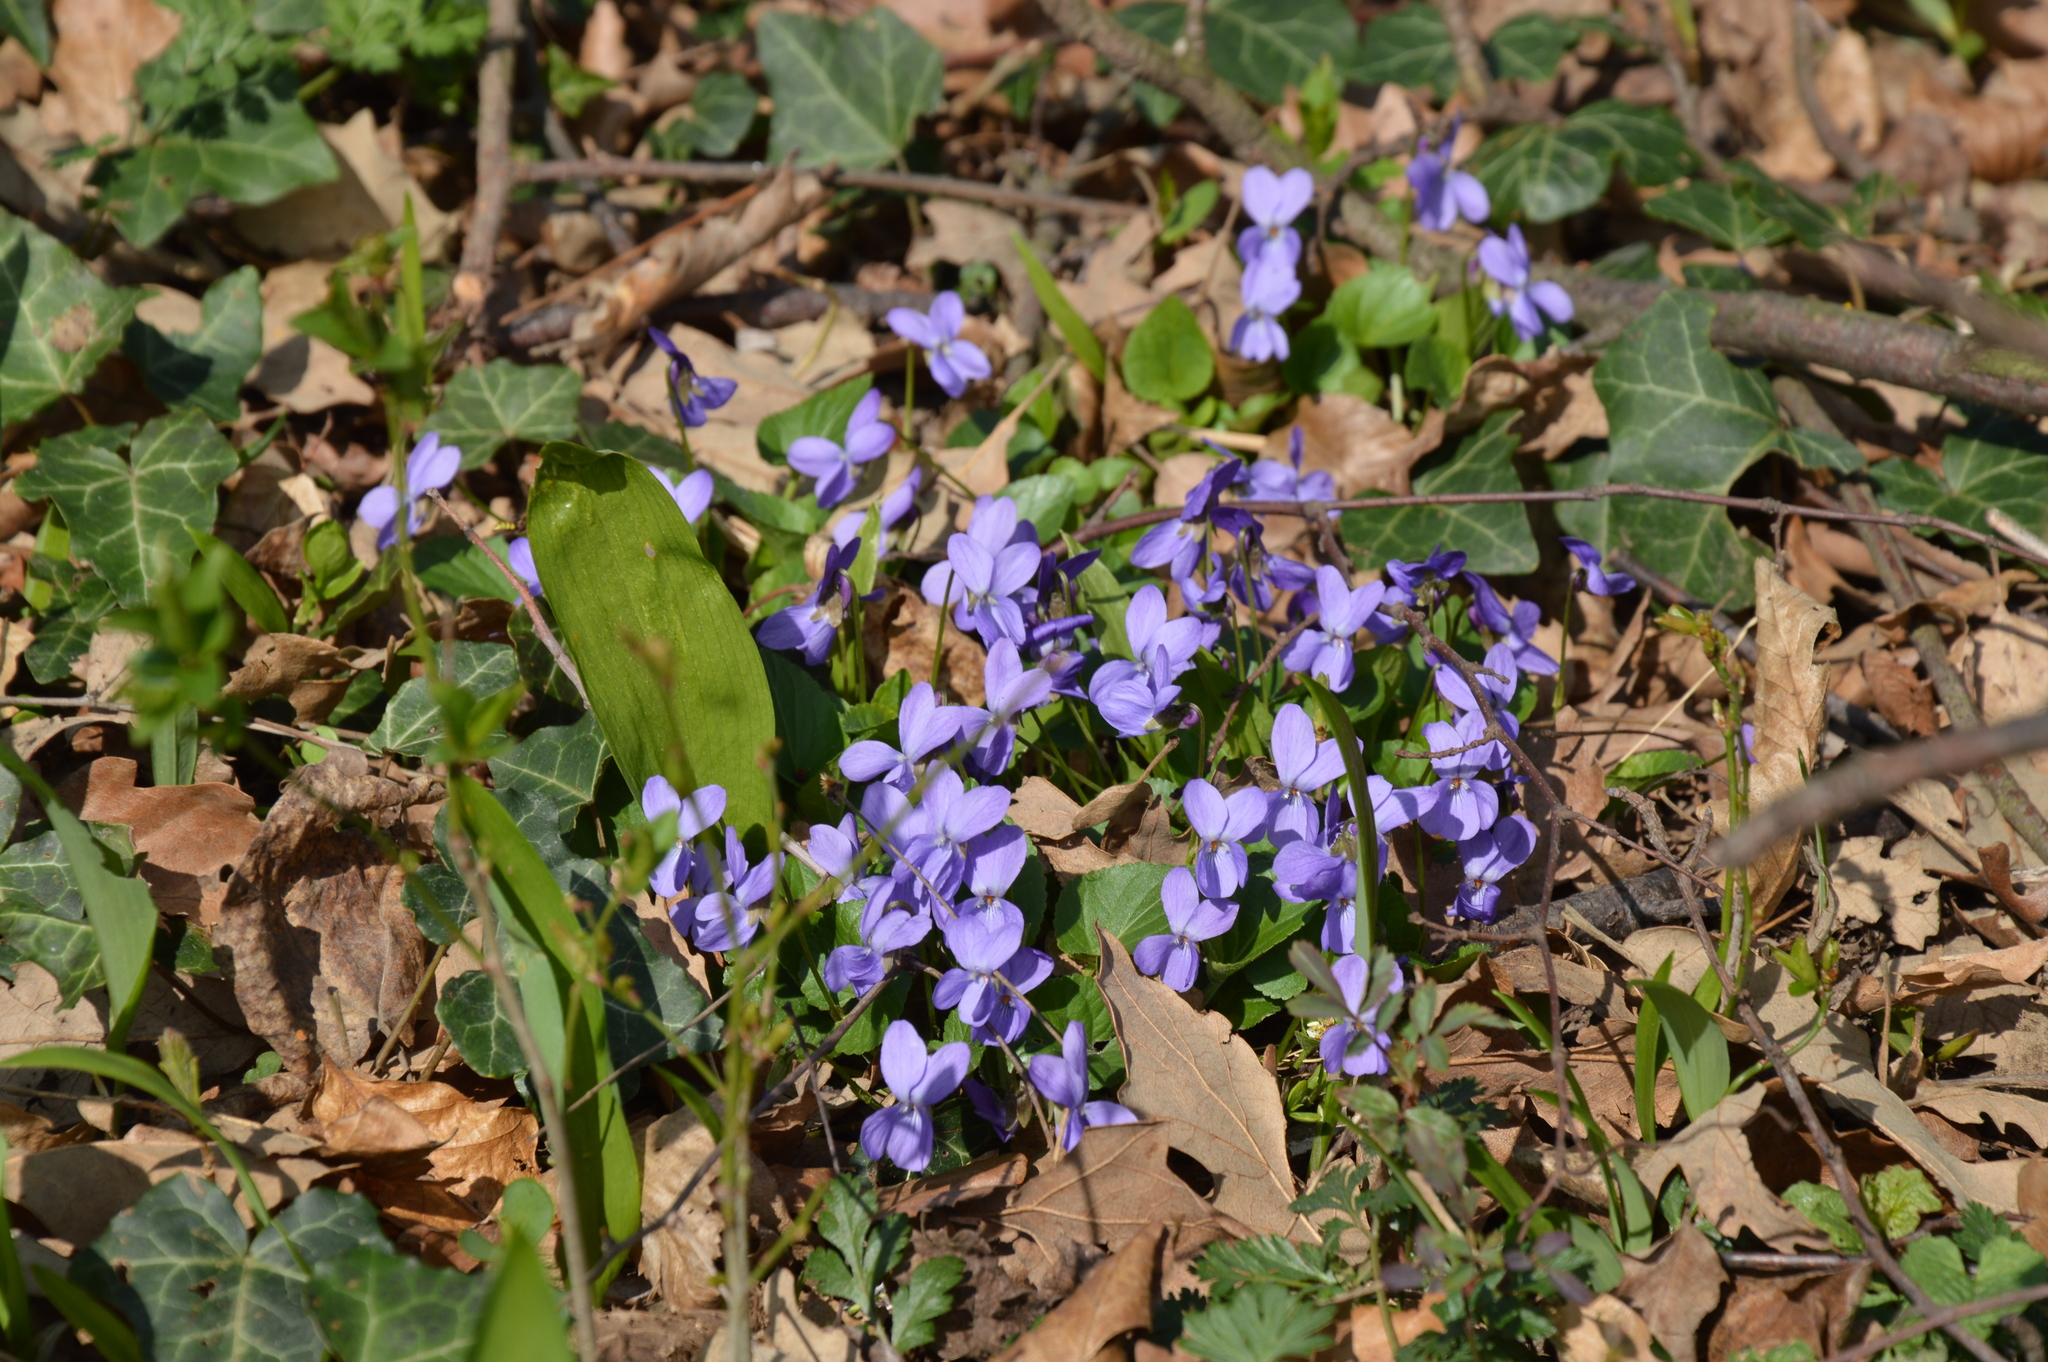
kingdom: Plantae
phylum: Tracheophyta
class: Magnoliopsida
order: Malpighiales
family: Violaceae
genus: Viola
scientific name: Viola suavis
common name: Russian violet
